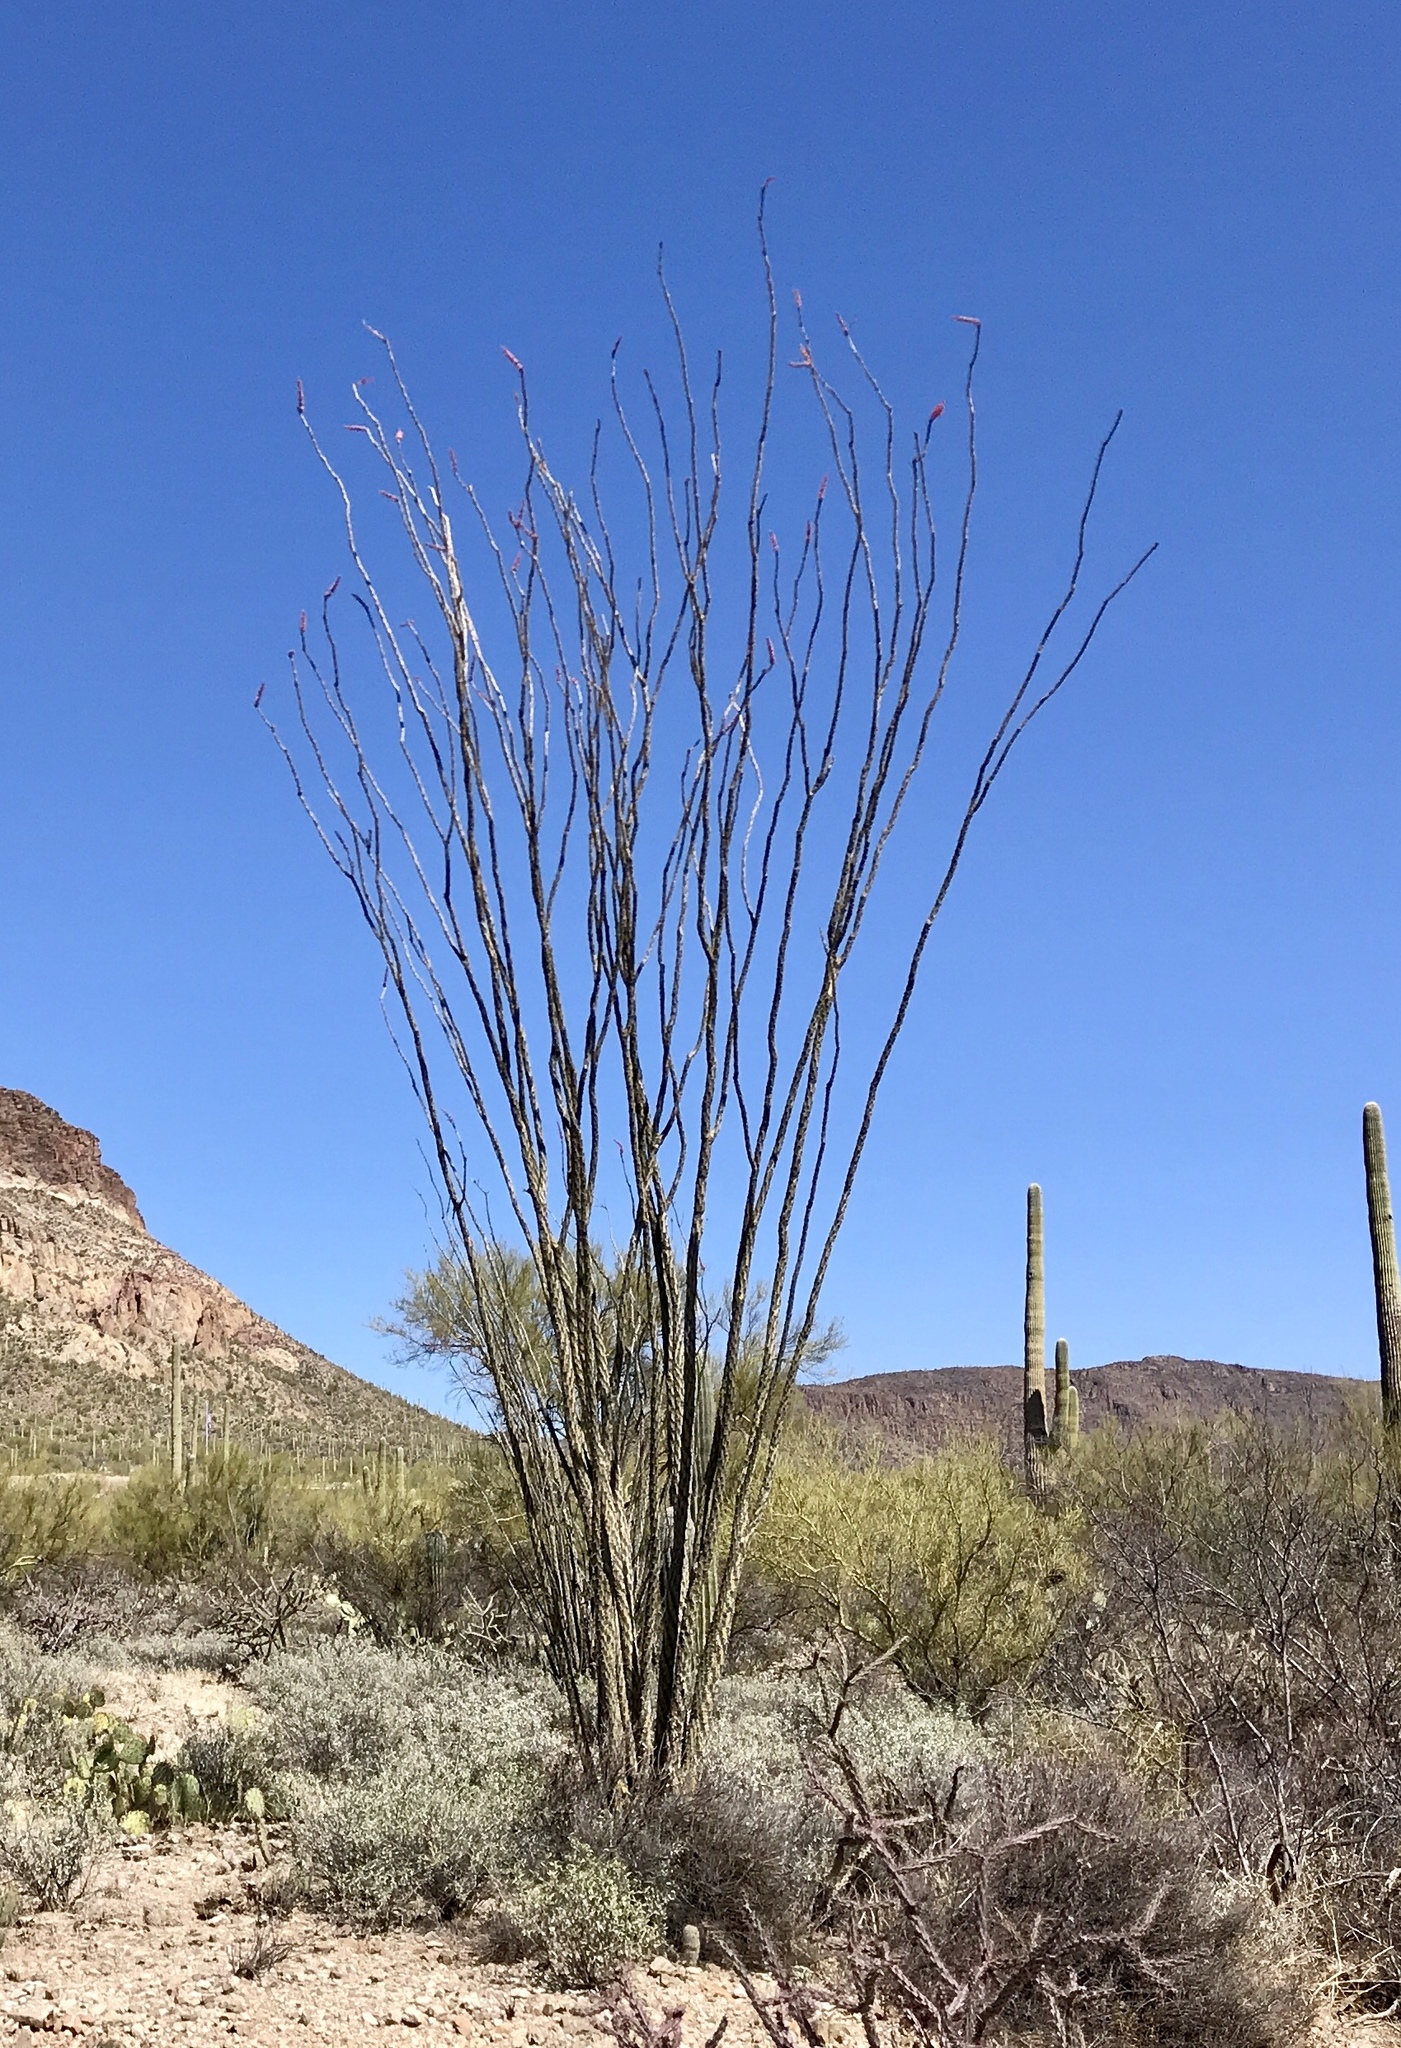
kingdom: Plantae
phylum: Tracheophyta
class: Magnoliopsida
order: Ericales
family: Fouquieriaceae
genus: Fouquieria
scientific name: Fouquieria splendens
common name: Vine-cactus
